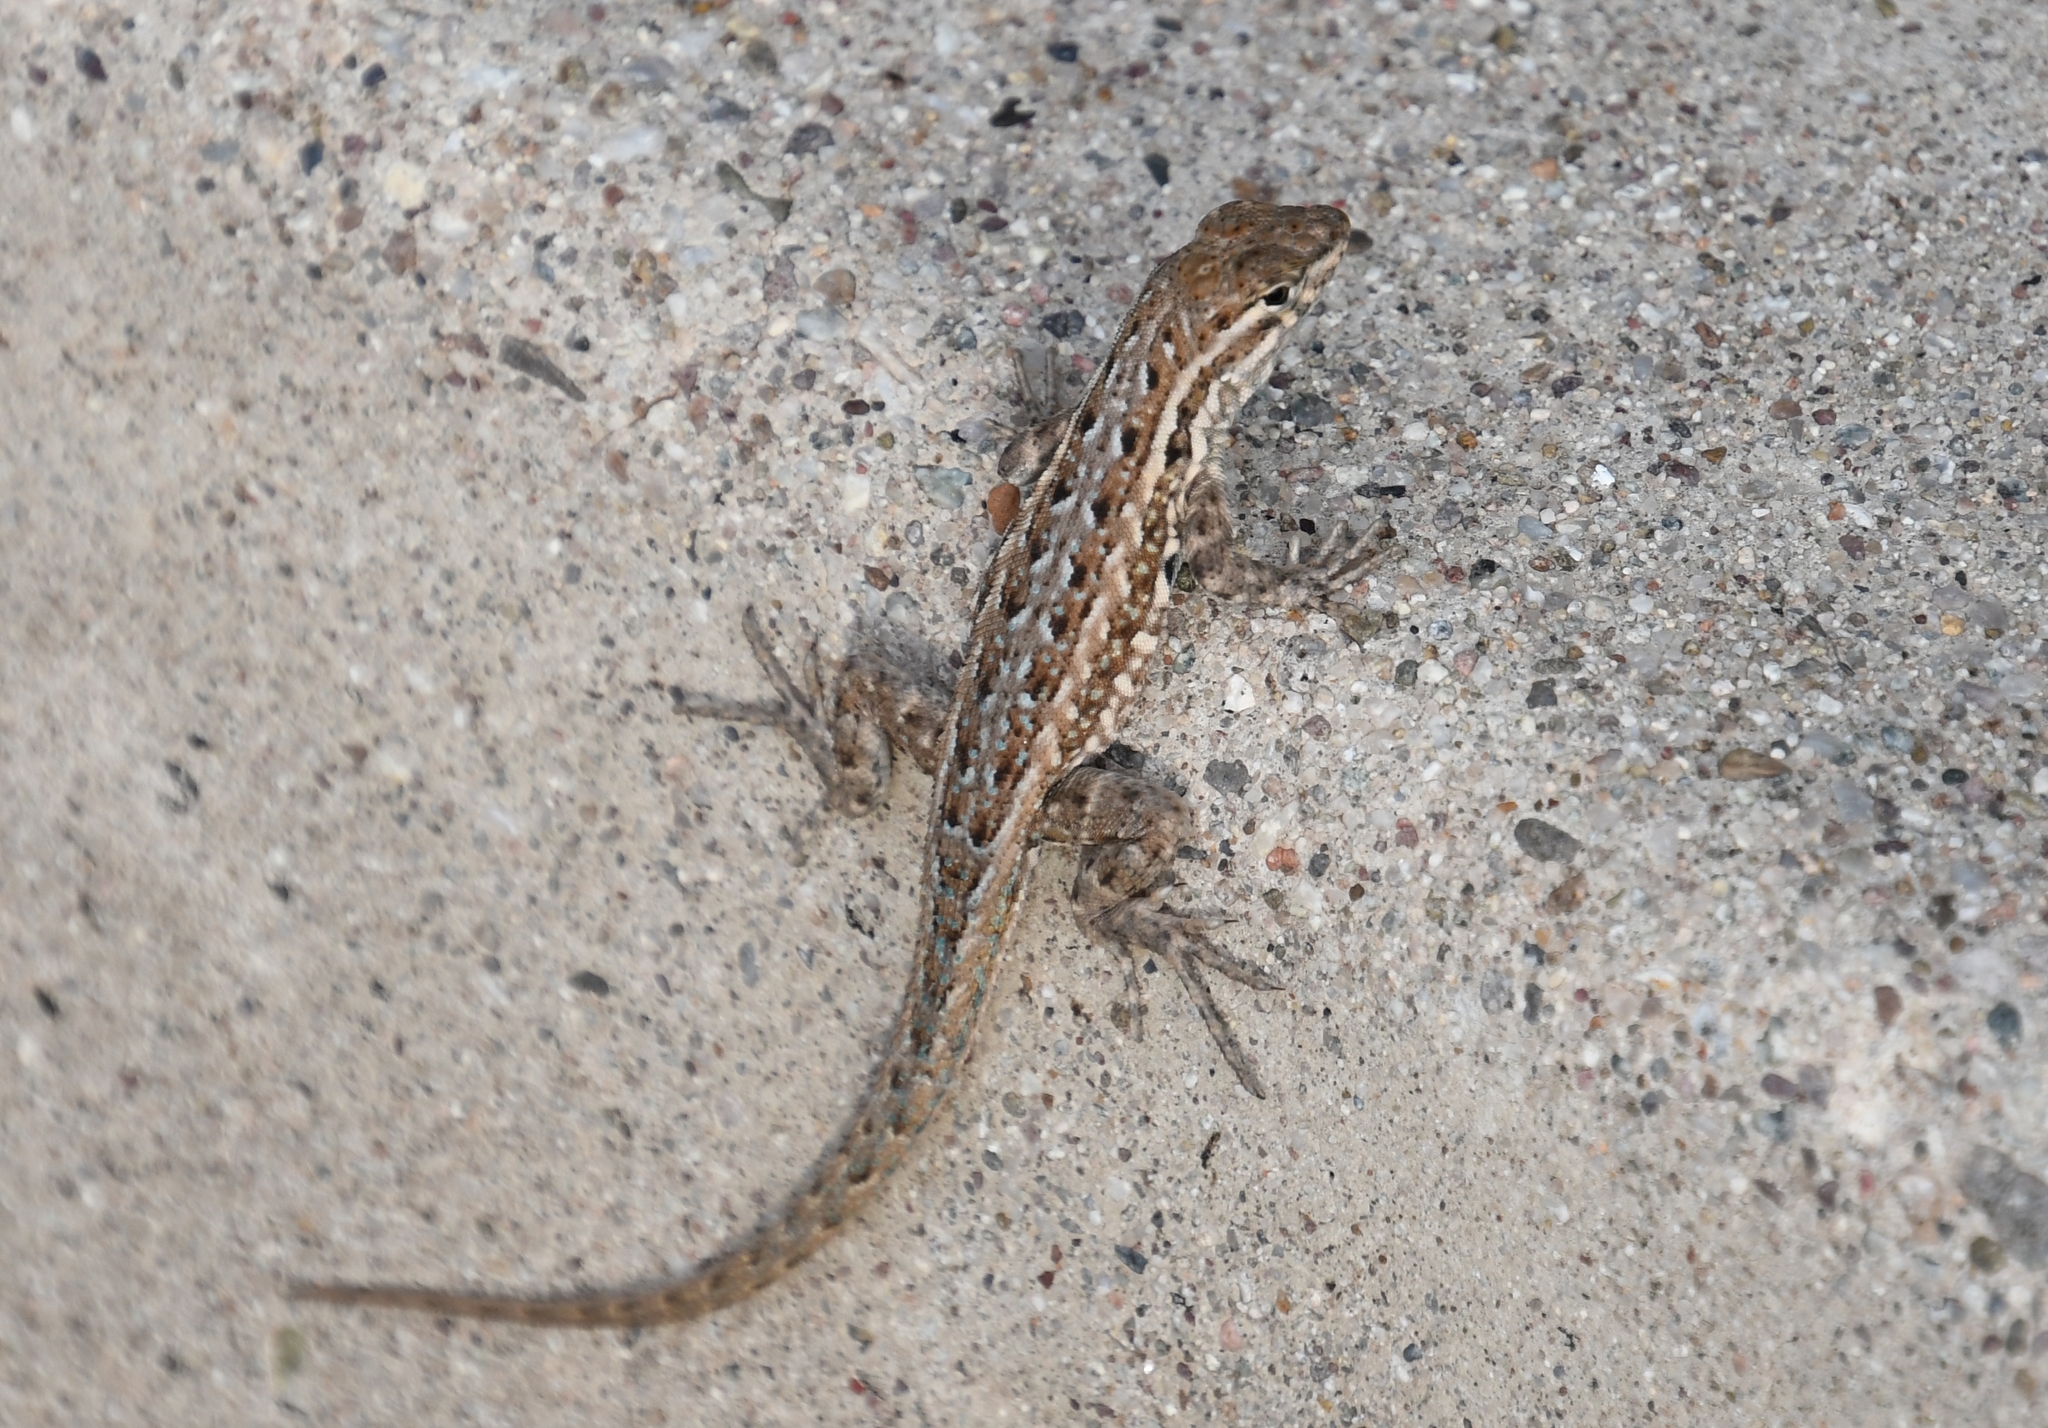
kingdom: Animalia
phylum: Chordata
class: Squamata
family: Phrynosomatidae
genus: Uta
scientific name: Uta stansburiana
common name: Side-blotched lizard
